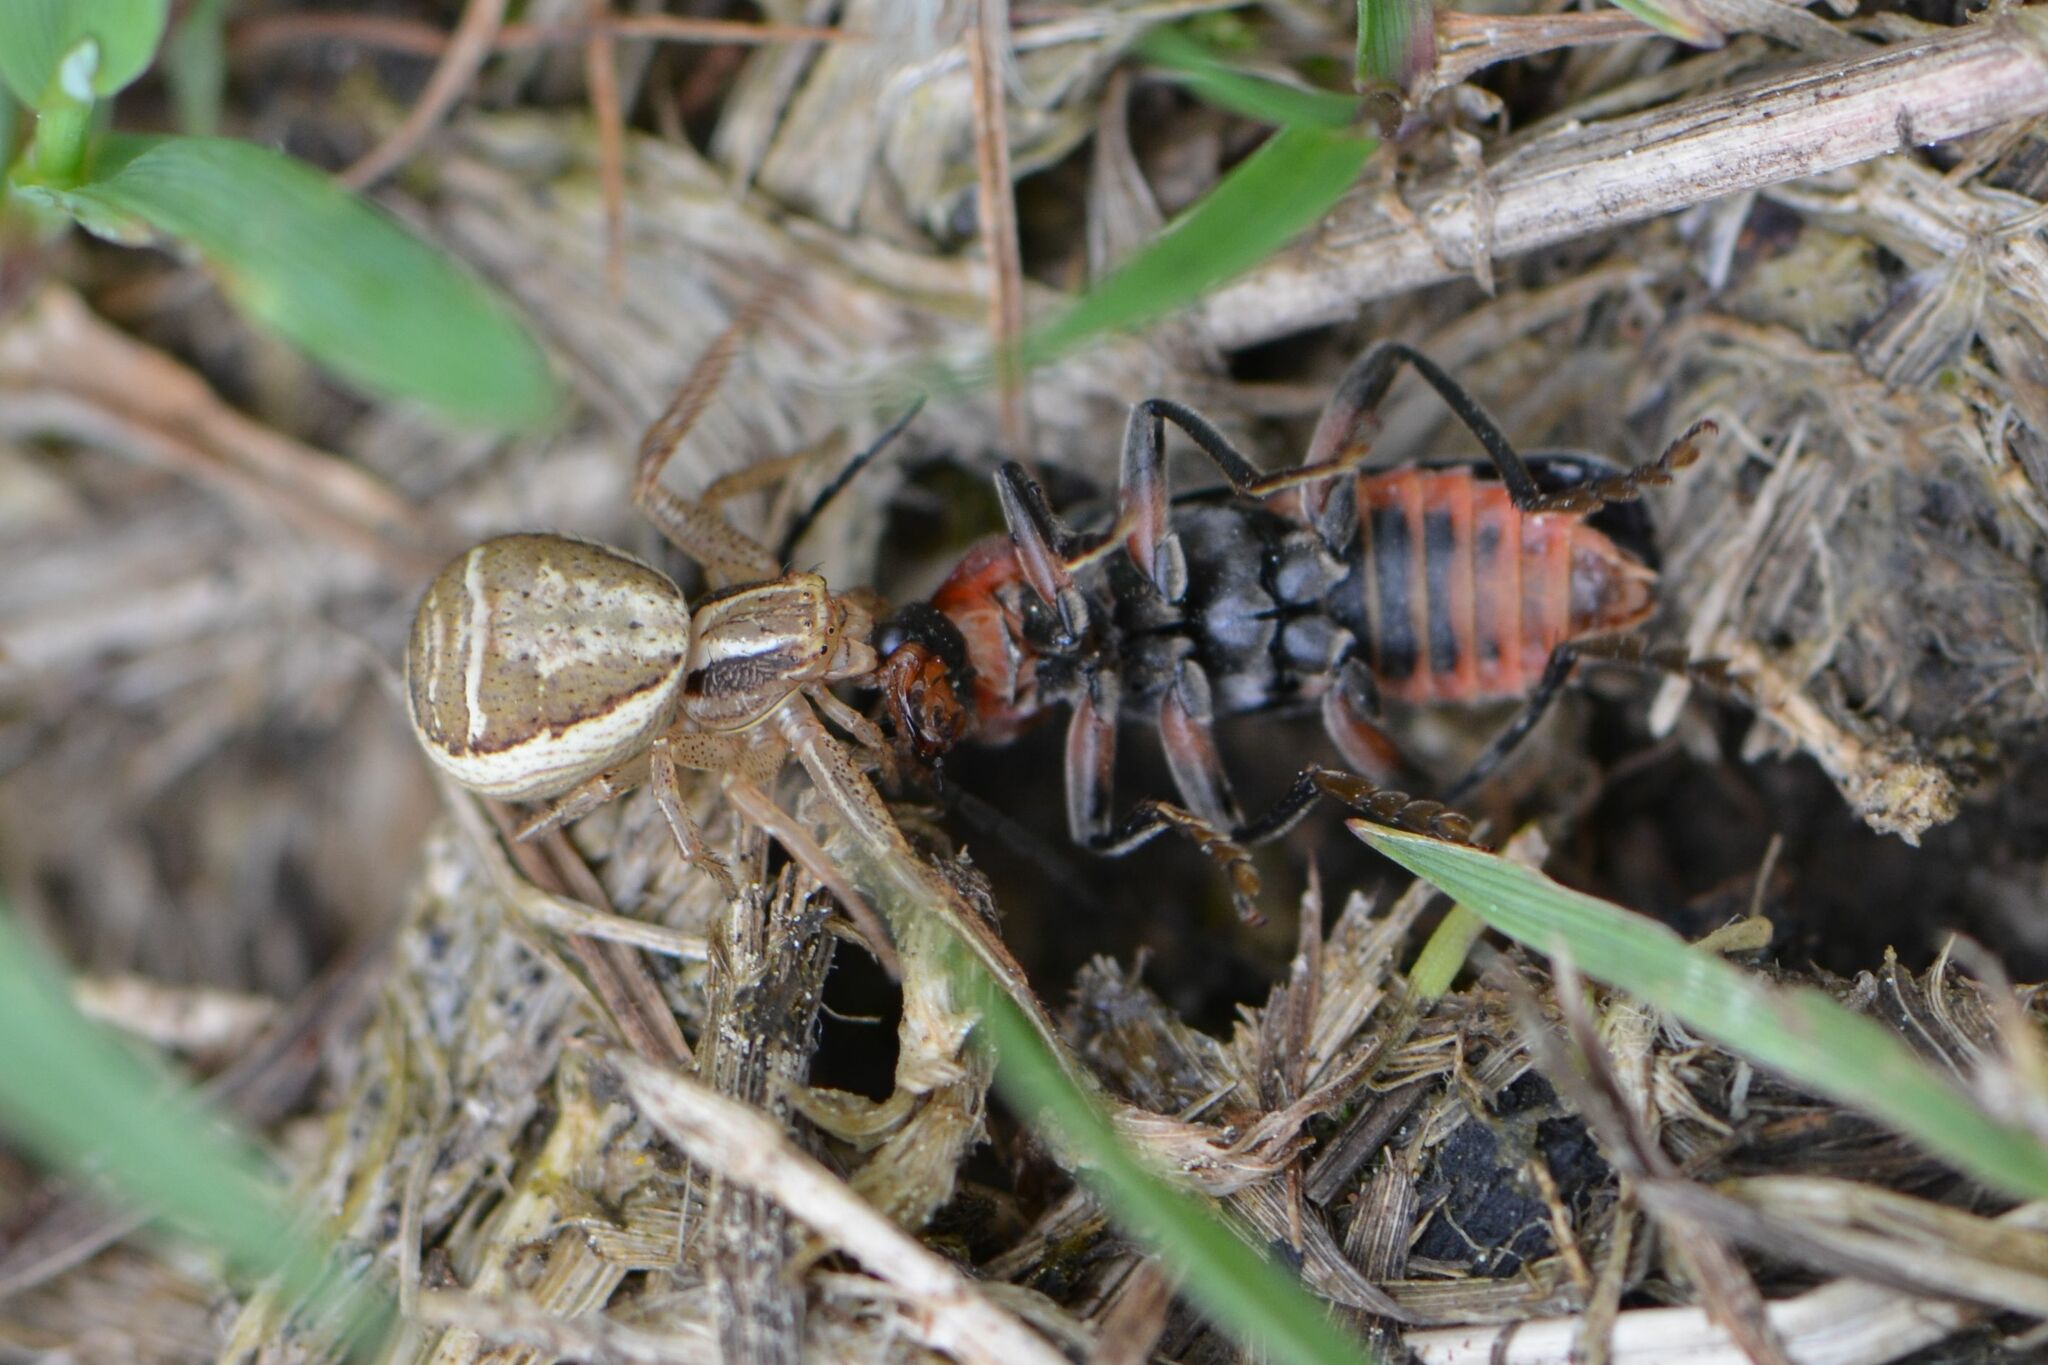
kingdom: Animalia
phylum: Arthropoda
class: Arachnida
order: Araneae
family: Thomisidae
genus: Xysticus
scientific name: Xysticus ulmi
